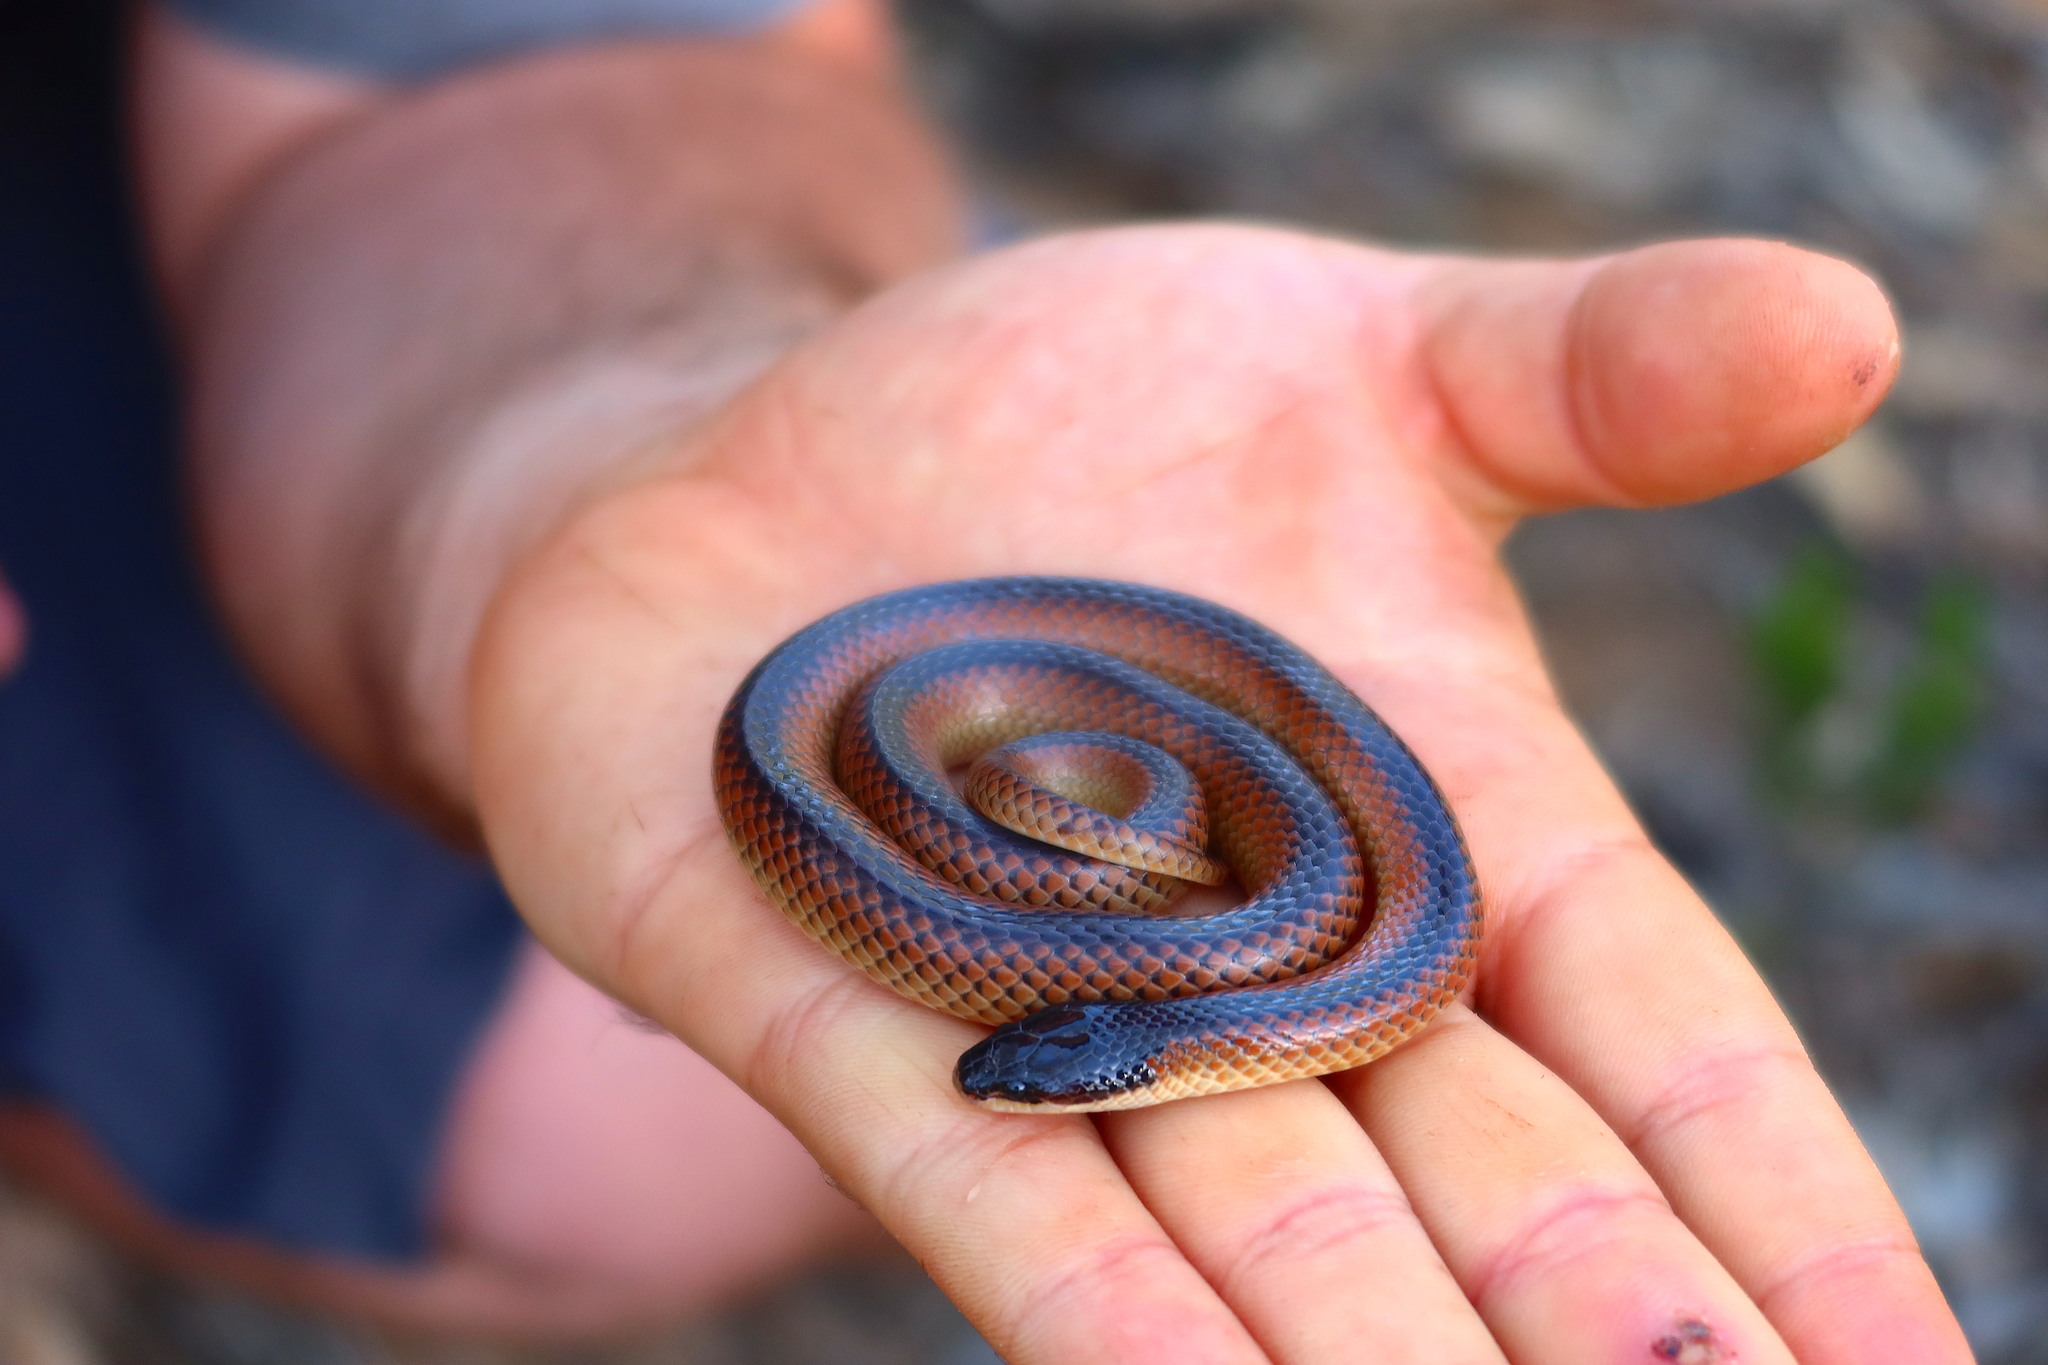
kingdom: Animalia
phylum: Chordata
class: Squamata
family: Elapidae
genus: Suta
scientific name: Suta nigriceps
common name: Mallee black-backed snake
